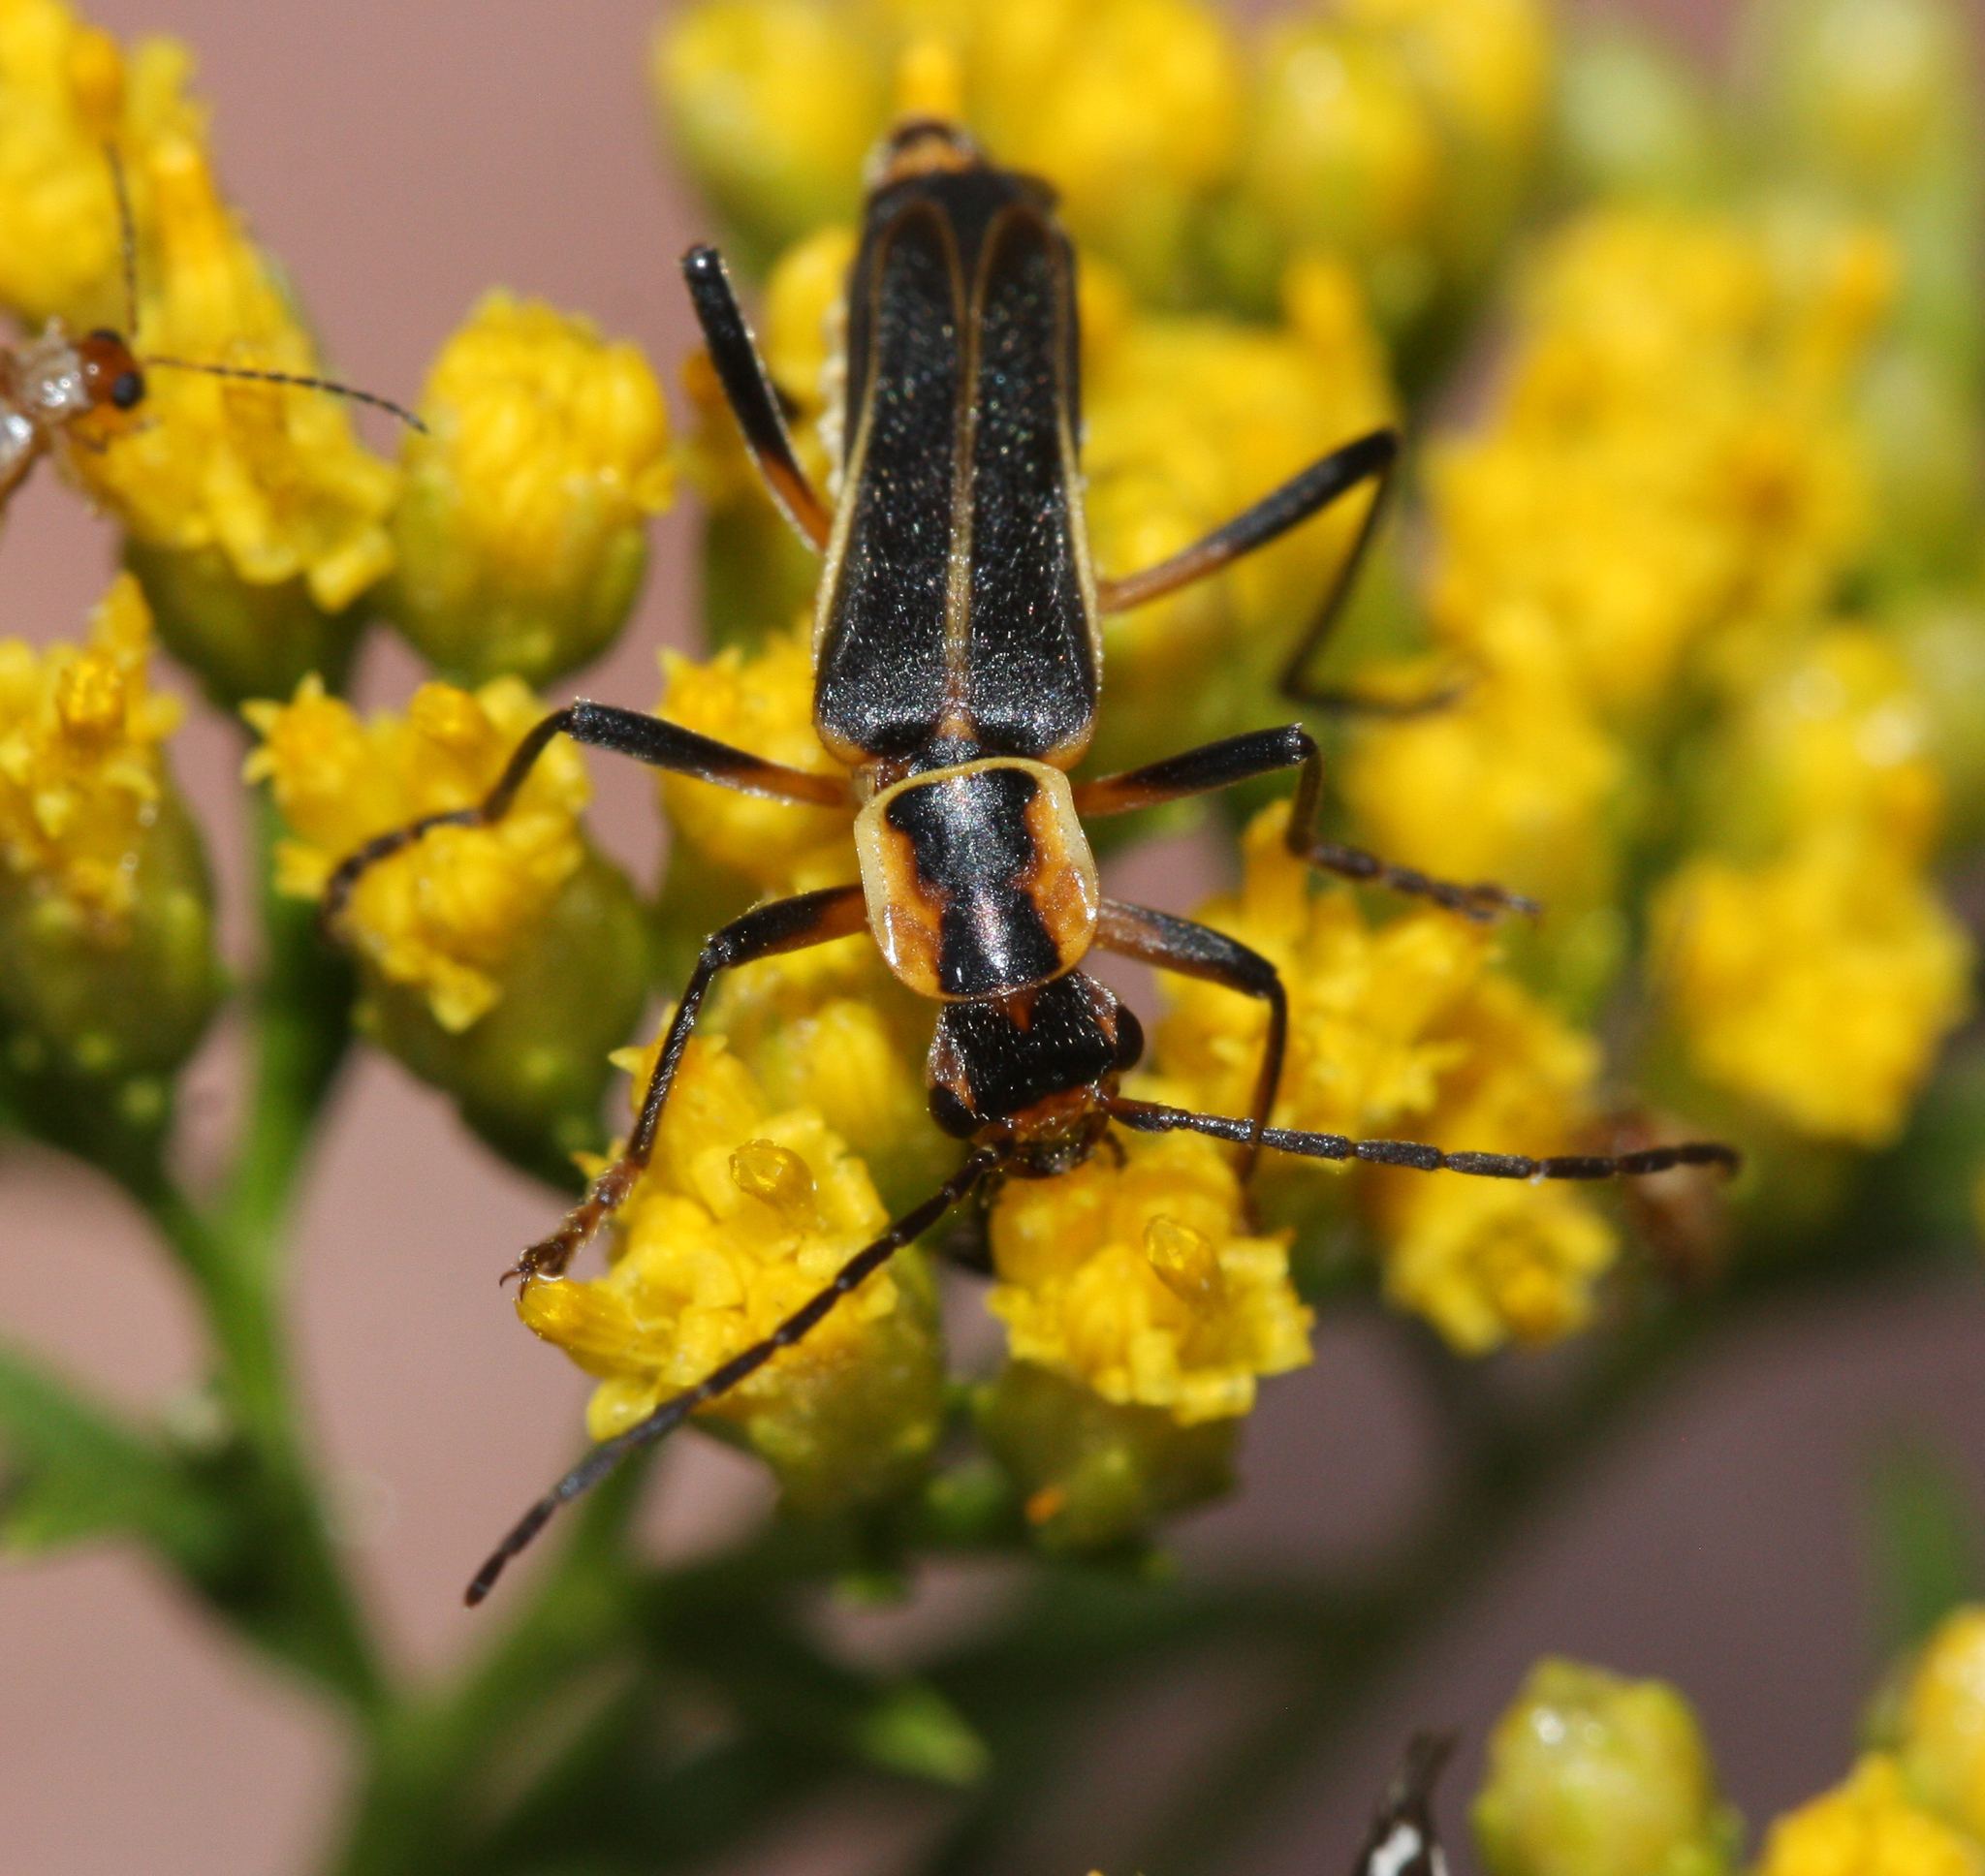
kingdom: Animalia
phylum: Arthropoda
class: Insecta
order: Coleoptera
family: Cantharidae
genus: Chauliognathus
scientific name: Chauliognathus obscurus
